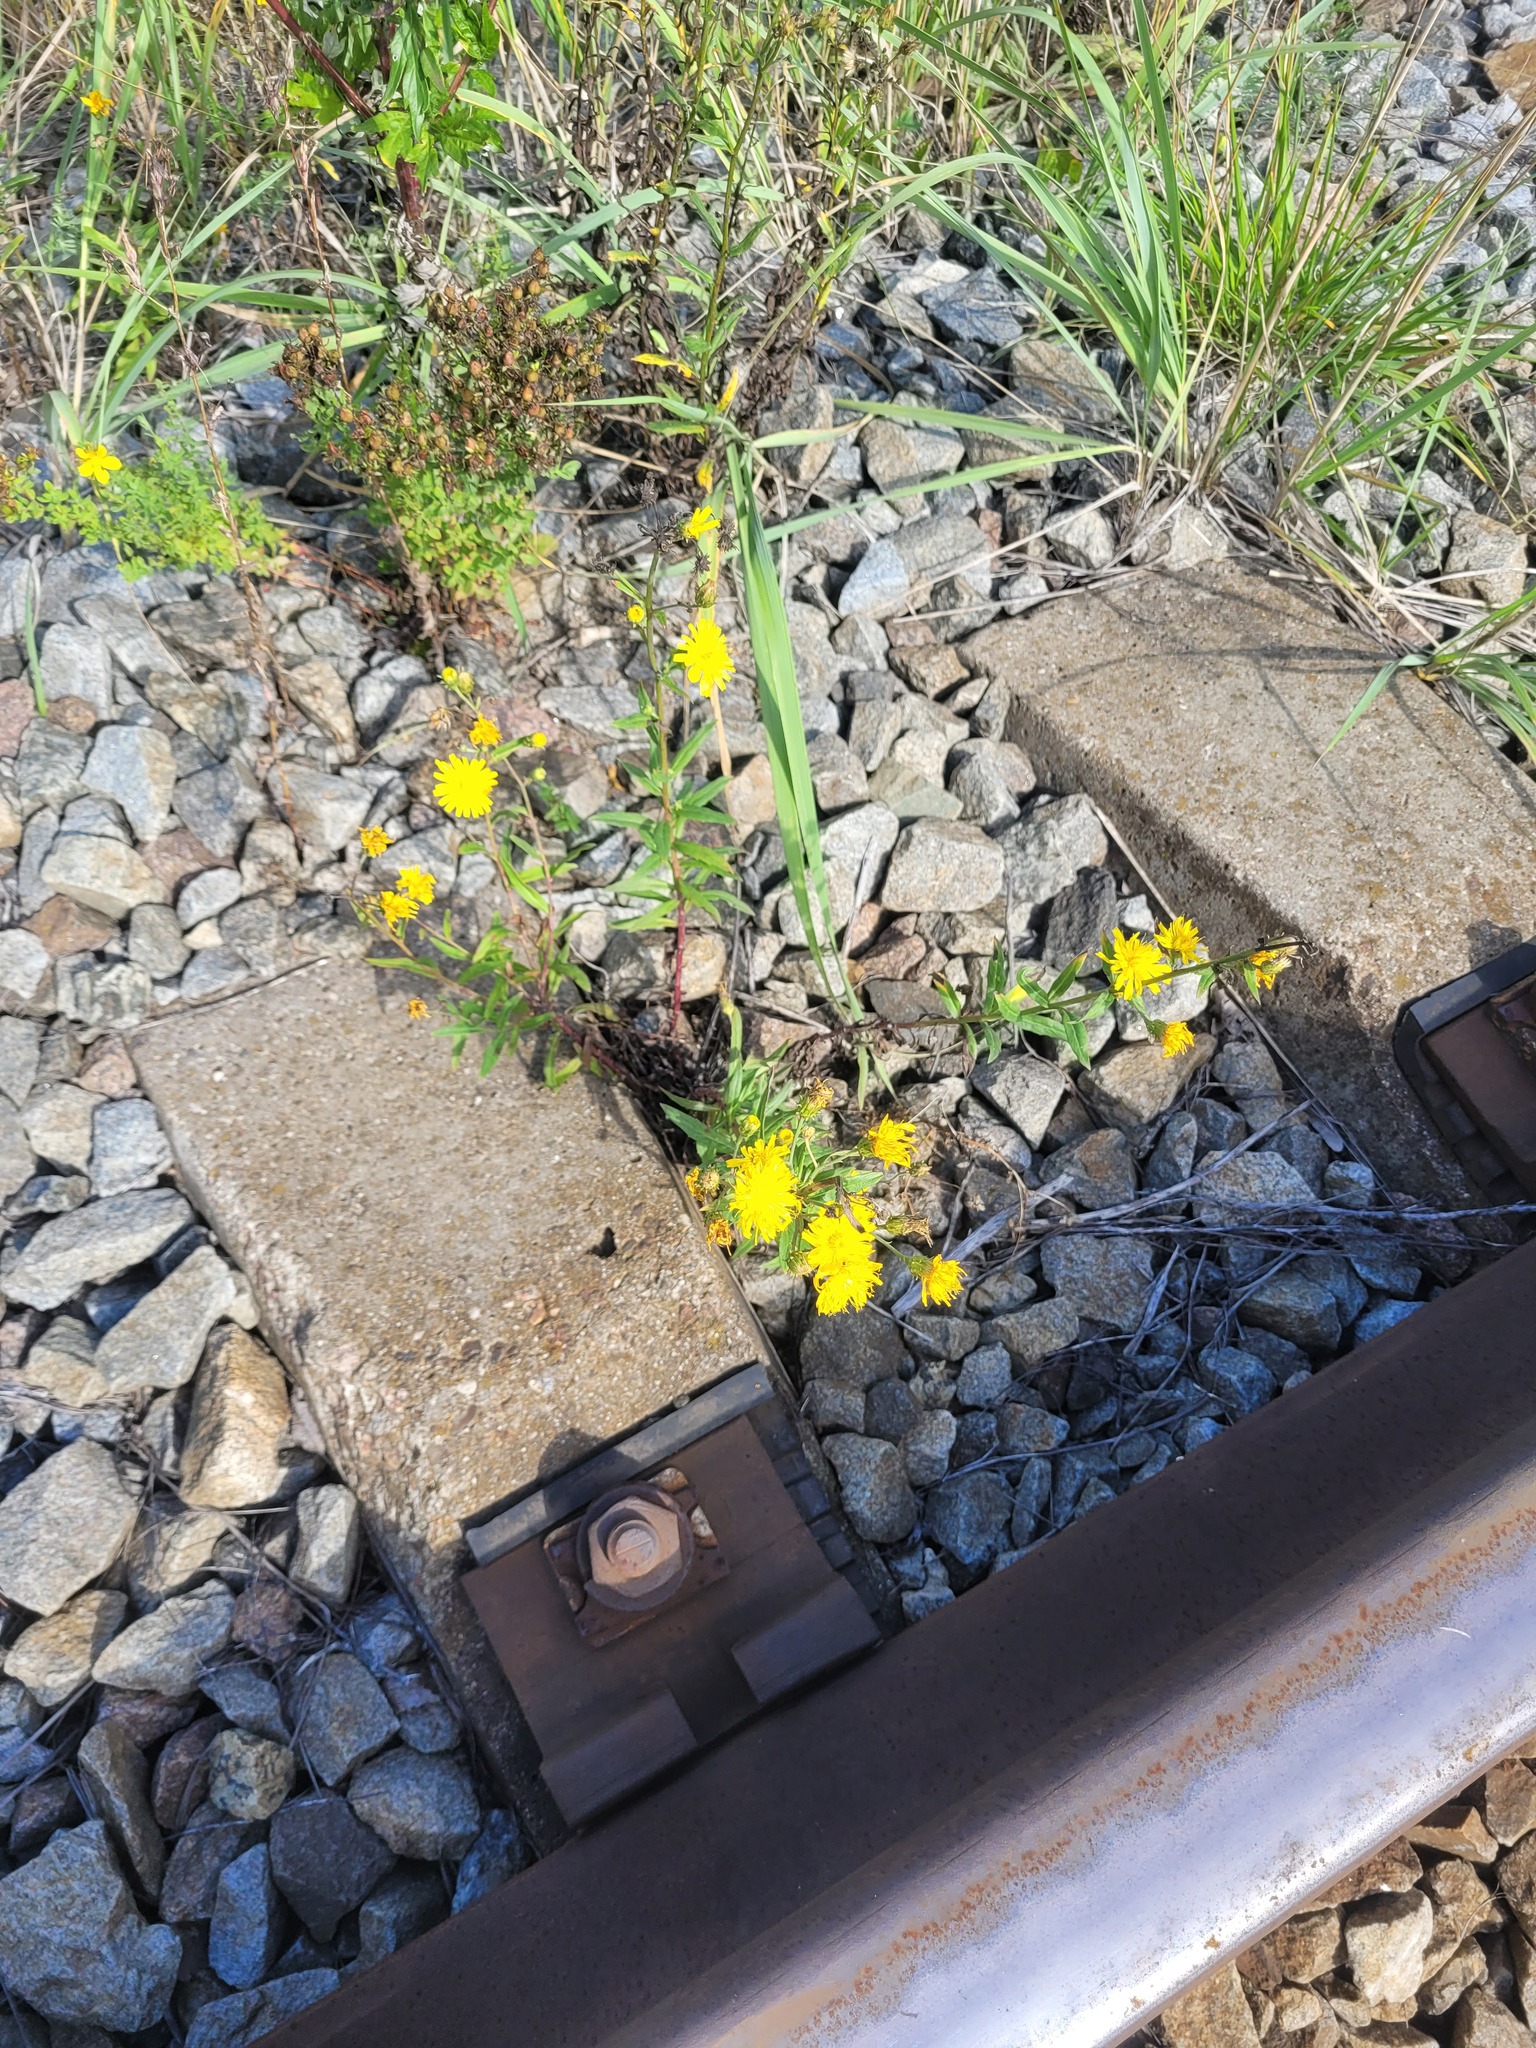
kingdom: Plantae
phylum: Tracheophyta
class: Magnoliopsida
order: Asterales
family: Asteraceae
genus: Hieracium
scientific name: Hieracium umbellatum
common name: Northern hawkweed
